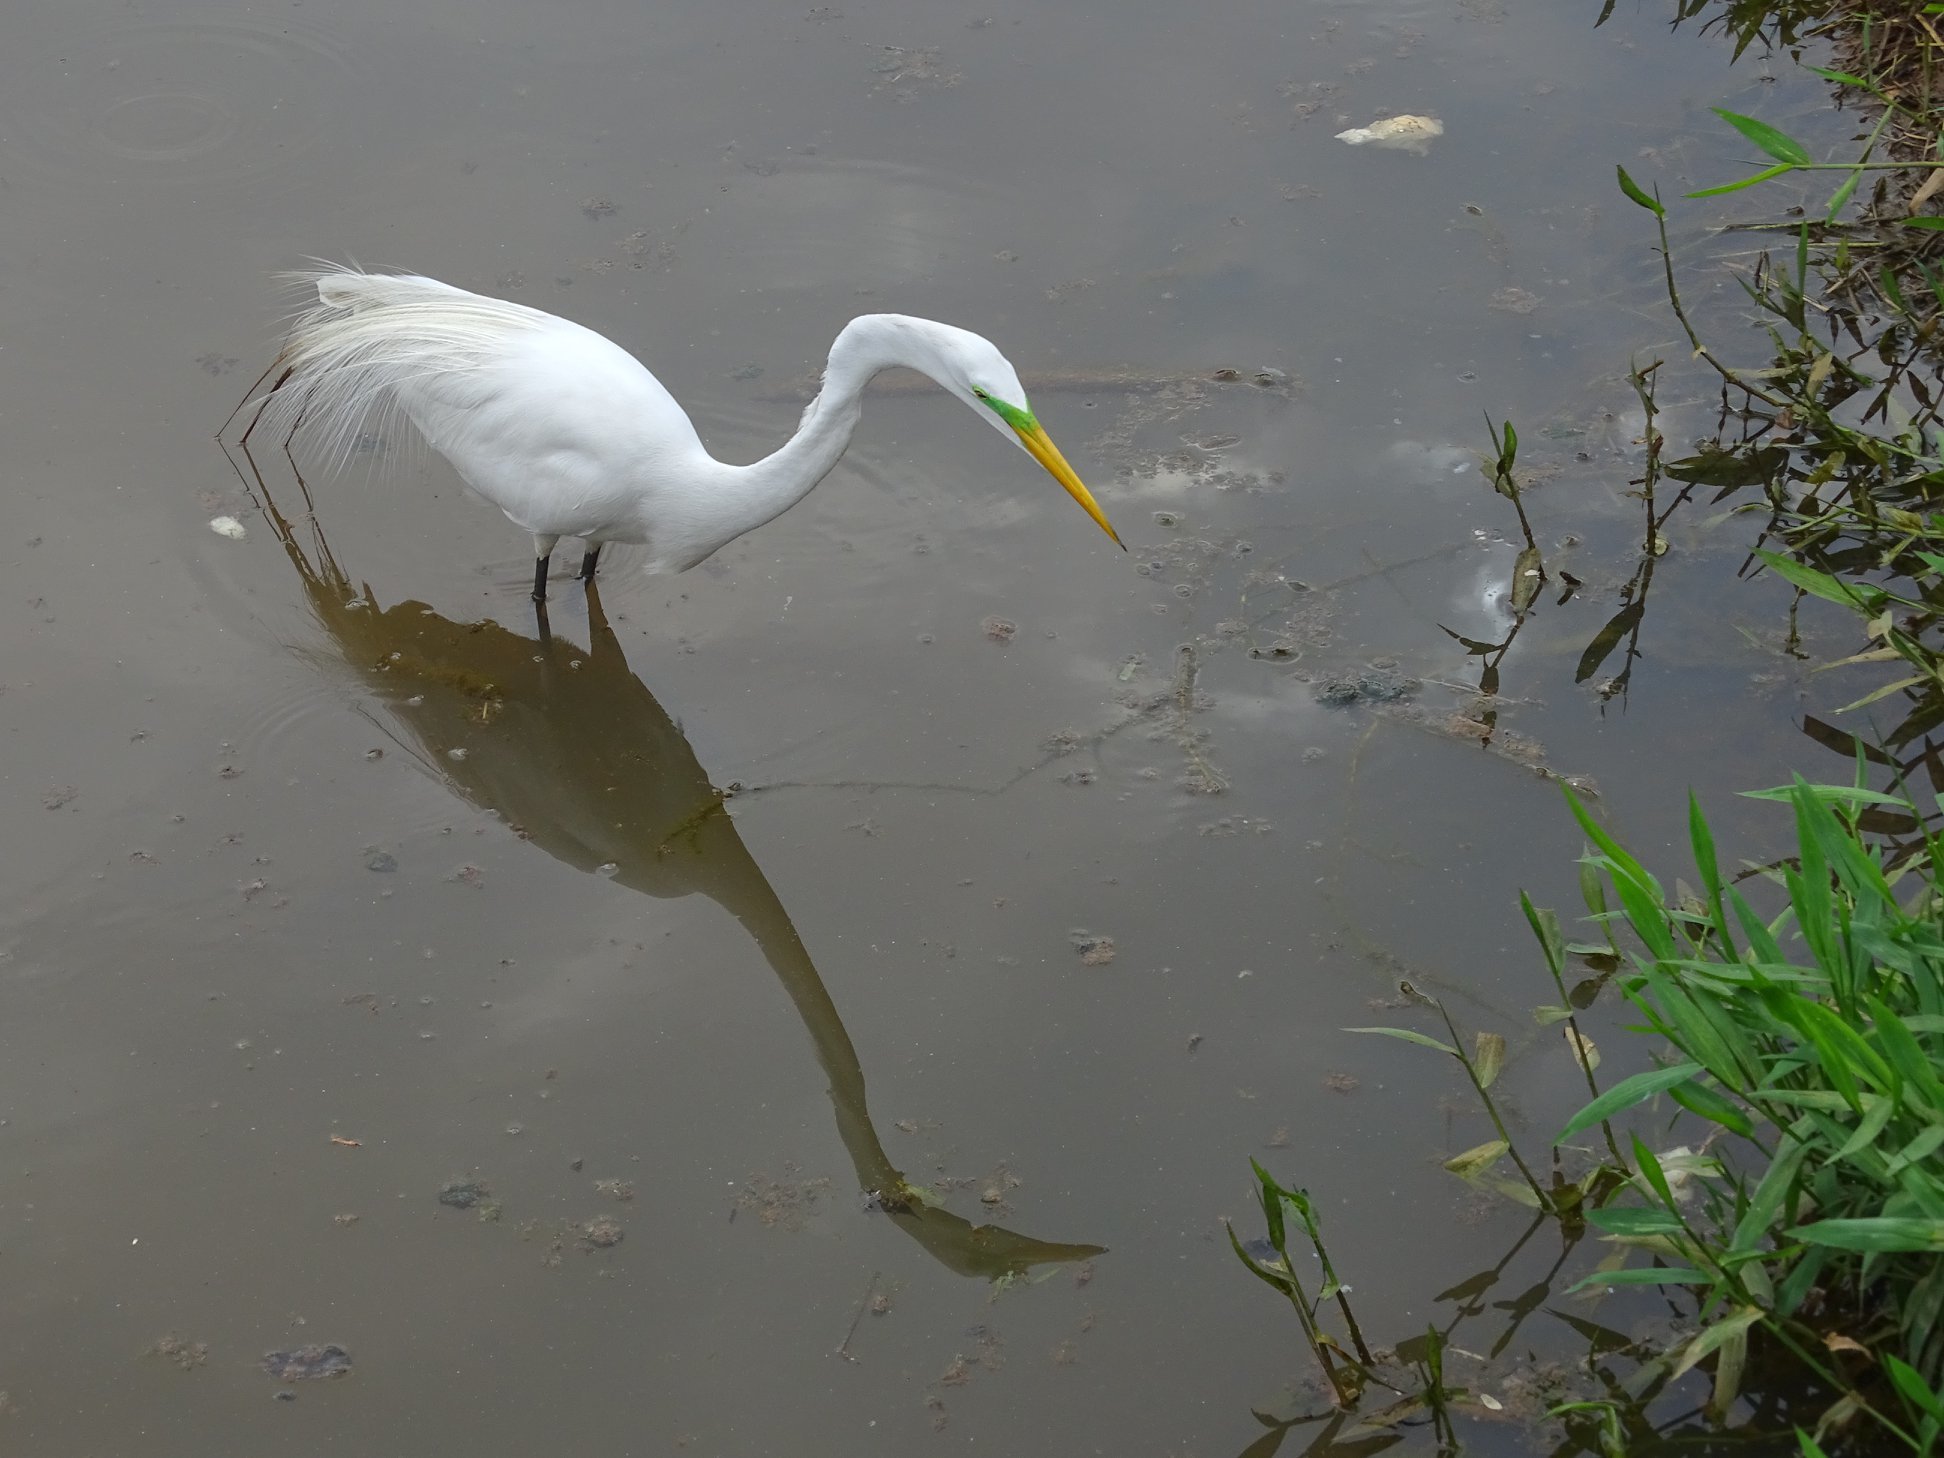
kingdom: Animalia
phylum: Chordata
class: Aves
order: Pelecaniformes
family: Ardeidae
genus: Ardea
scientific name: Ardea alba
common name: Great egret
